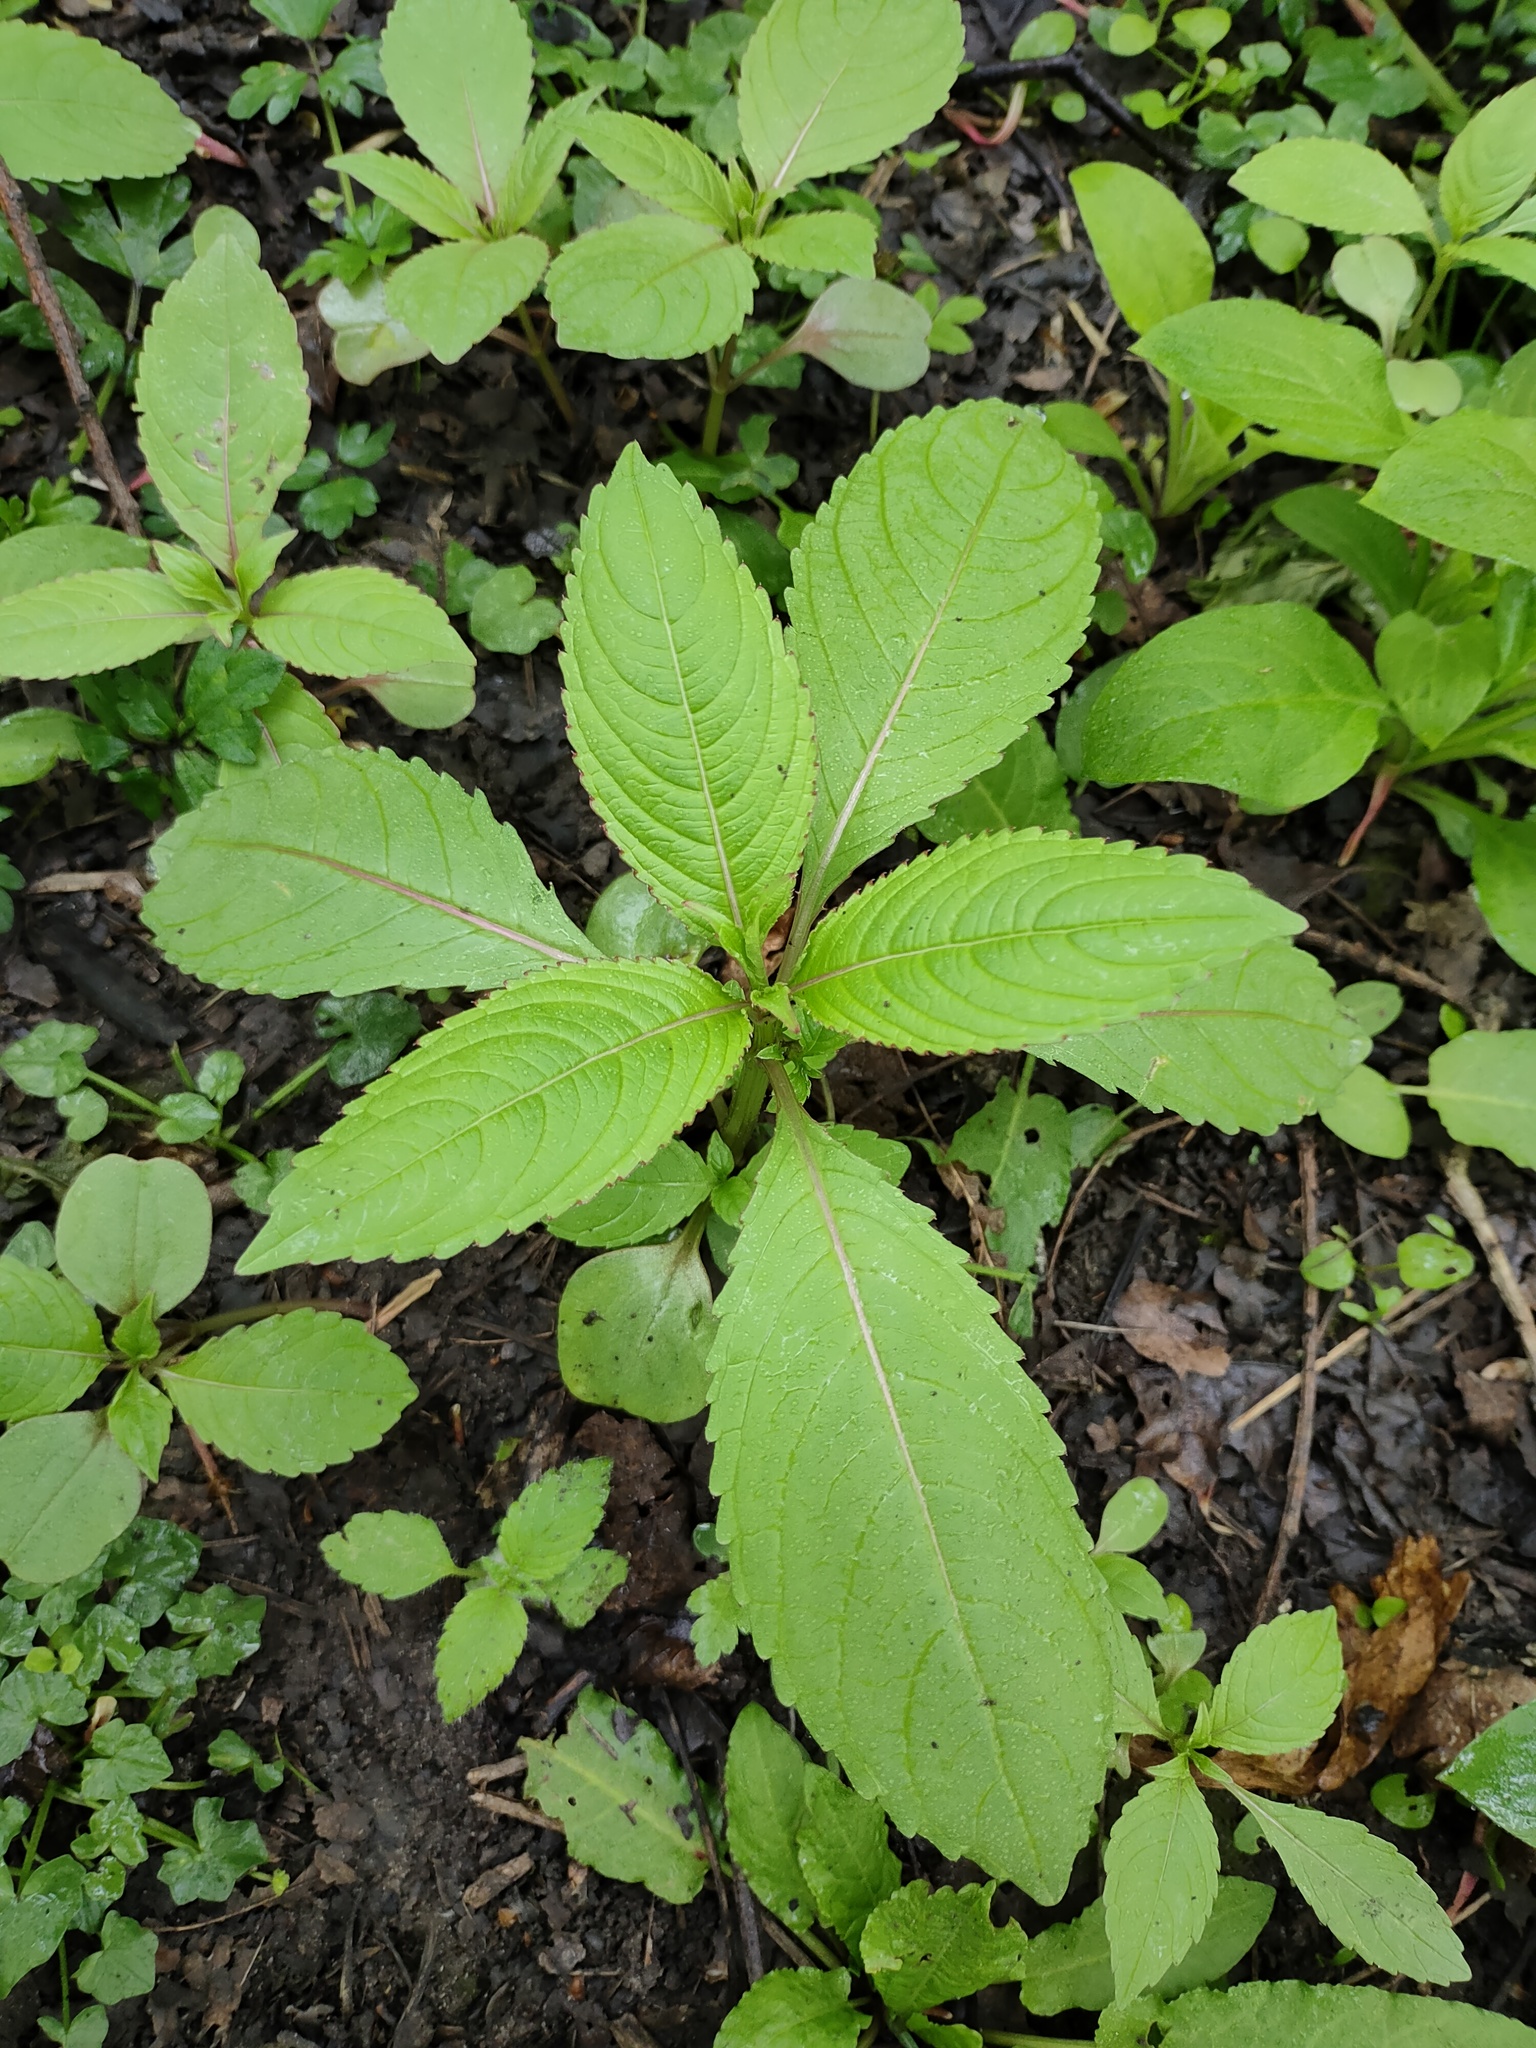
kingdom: Plantae
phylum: Tracheophyta
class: Magnoliopsida
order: Ericales
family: Balsaminaceae
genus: Impatiens
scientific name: Impatiens glandulifera
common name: Himalayan balsam
